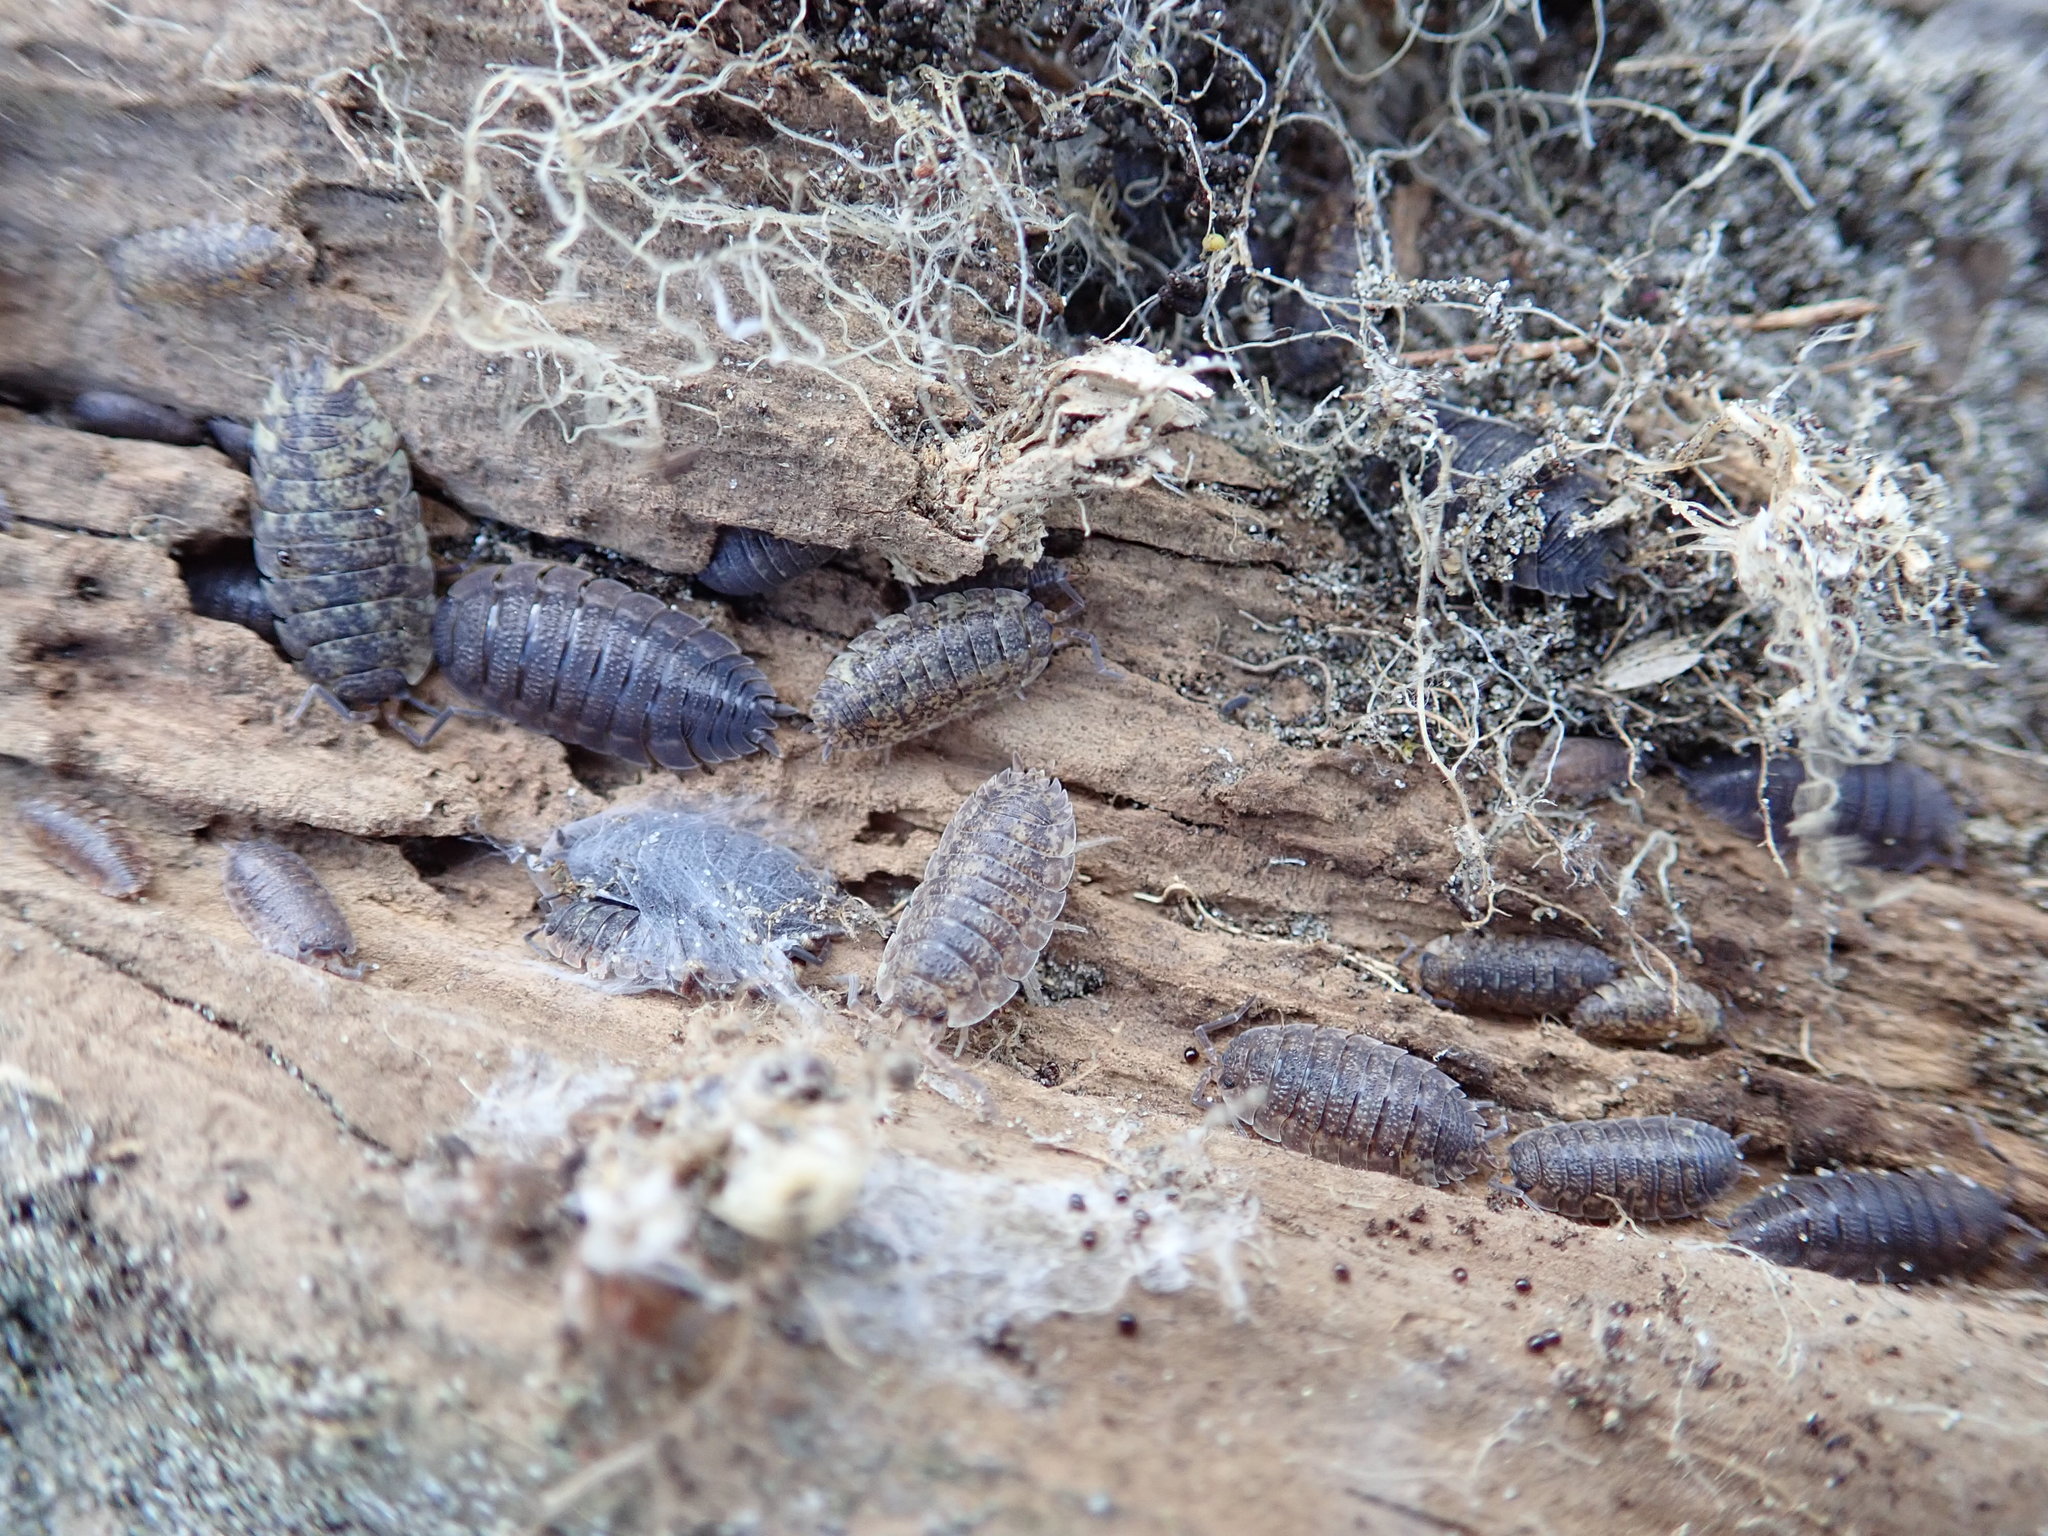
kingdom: Animalia
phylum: Arthropoda
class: Malacostraca
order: Isopoda
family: Porcellionidae
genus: Porcellio
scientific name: Porcellio scaber
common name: Common rough woodlouse
